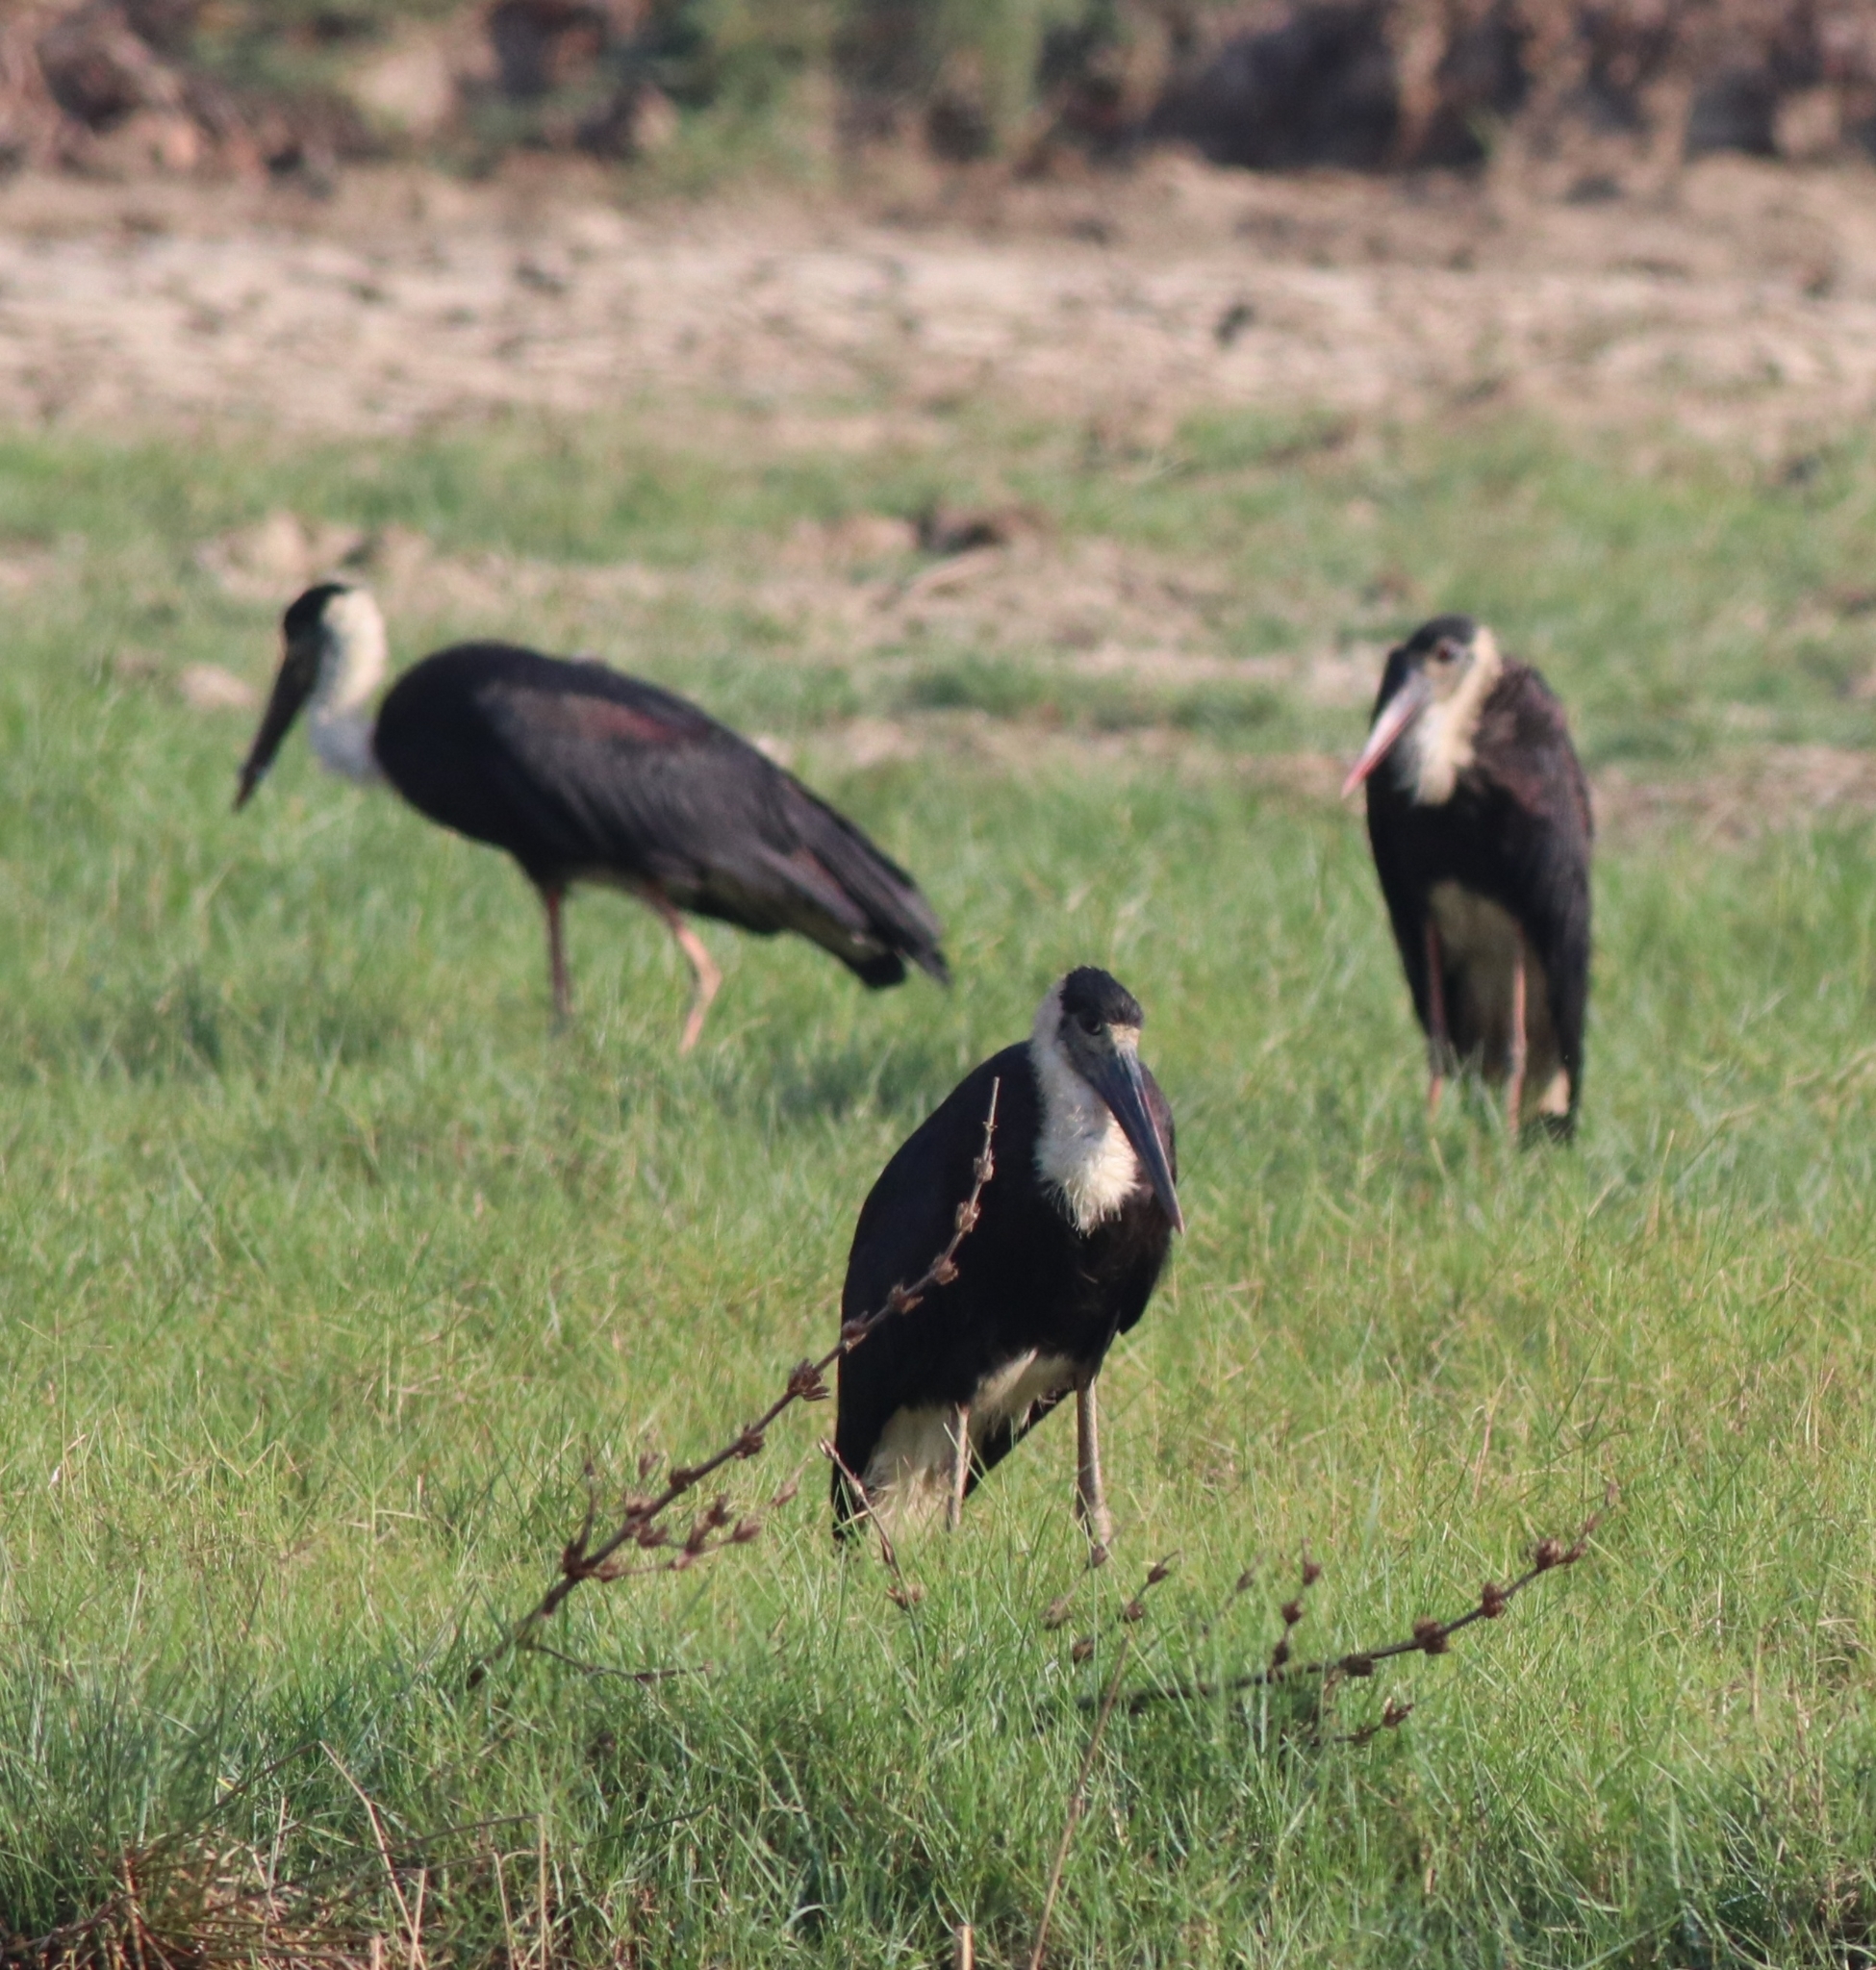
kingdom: Animalia
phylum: Chordata
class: Aves
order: Ciconiiformes
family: Ciconiidae
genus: Ciconia
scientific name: Ciconia episcopus
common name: Woolly-necked stork
